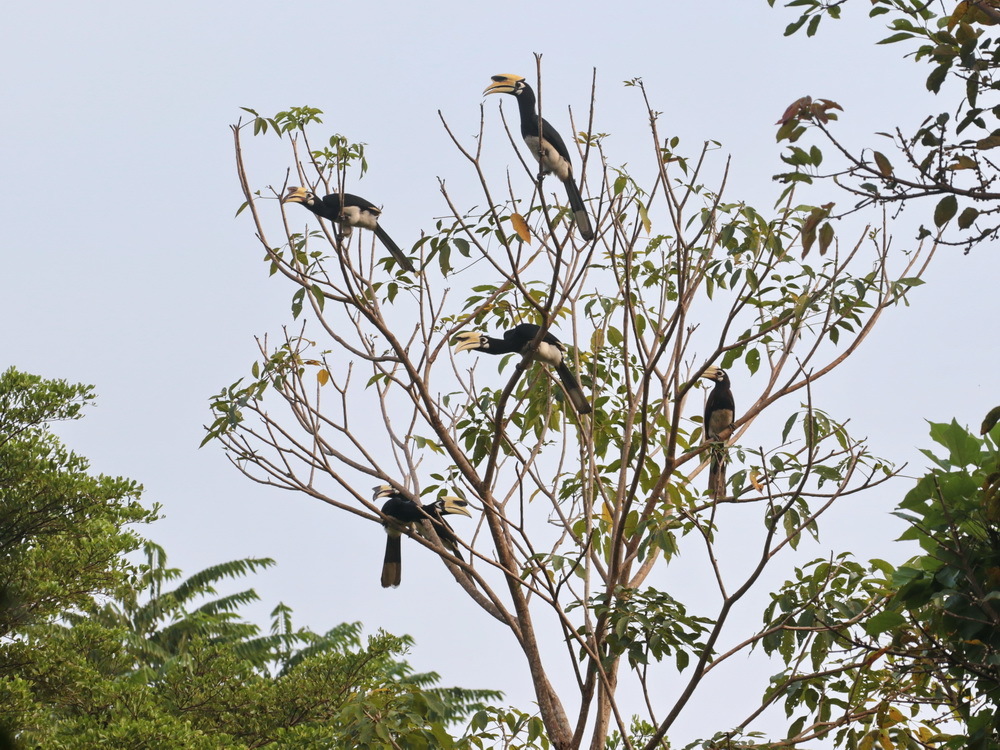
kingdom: Animalia
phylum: Chordata
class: Aves
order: Bucerotiformes
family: Bucerotidae
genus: Anthracoceros
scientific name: Anthracoceros albirostris
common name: Oriental pied-hornbill
